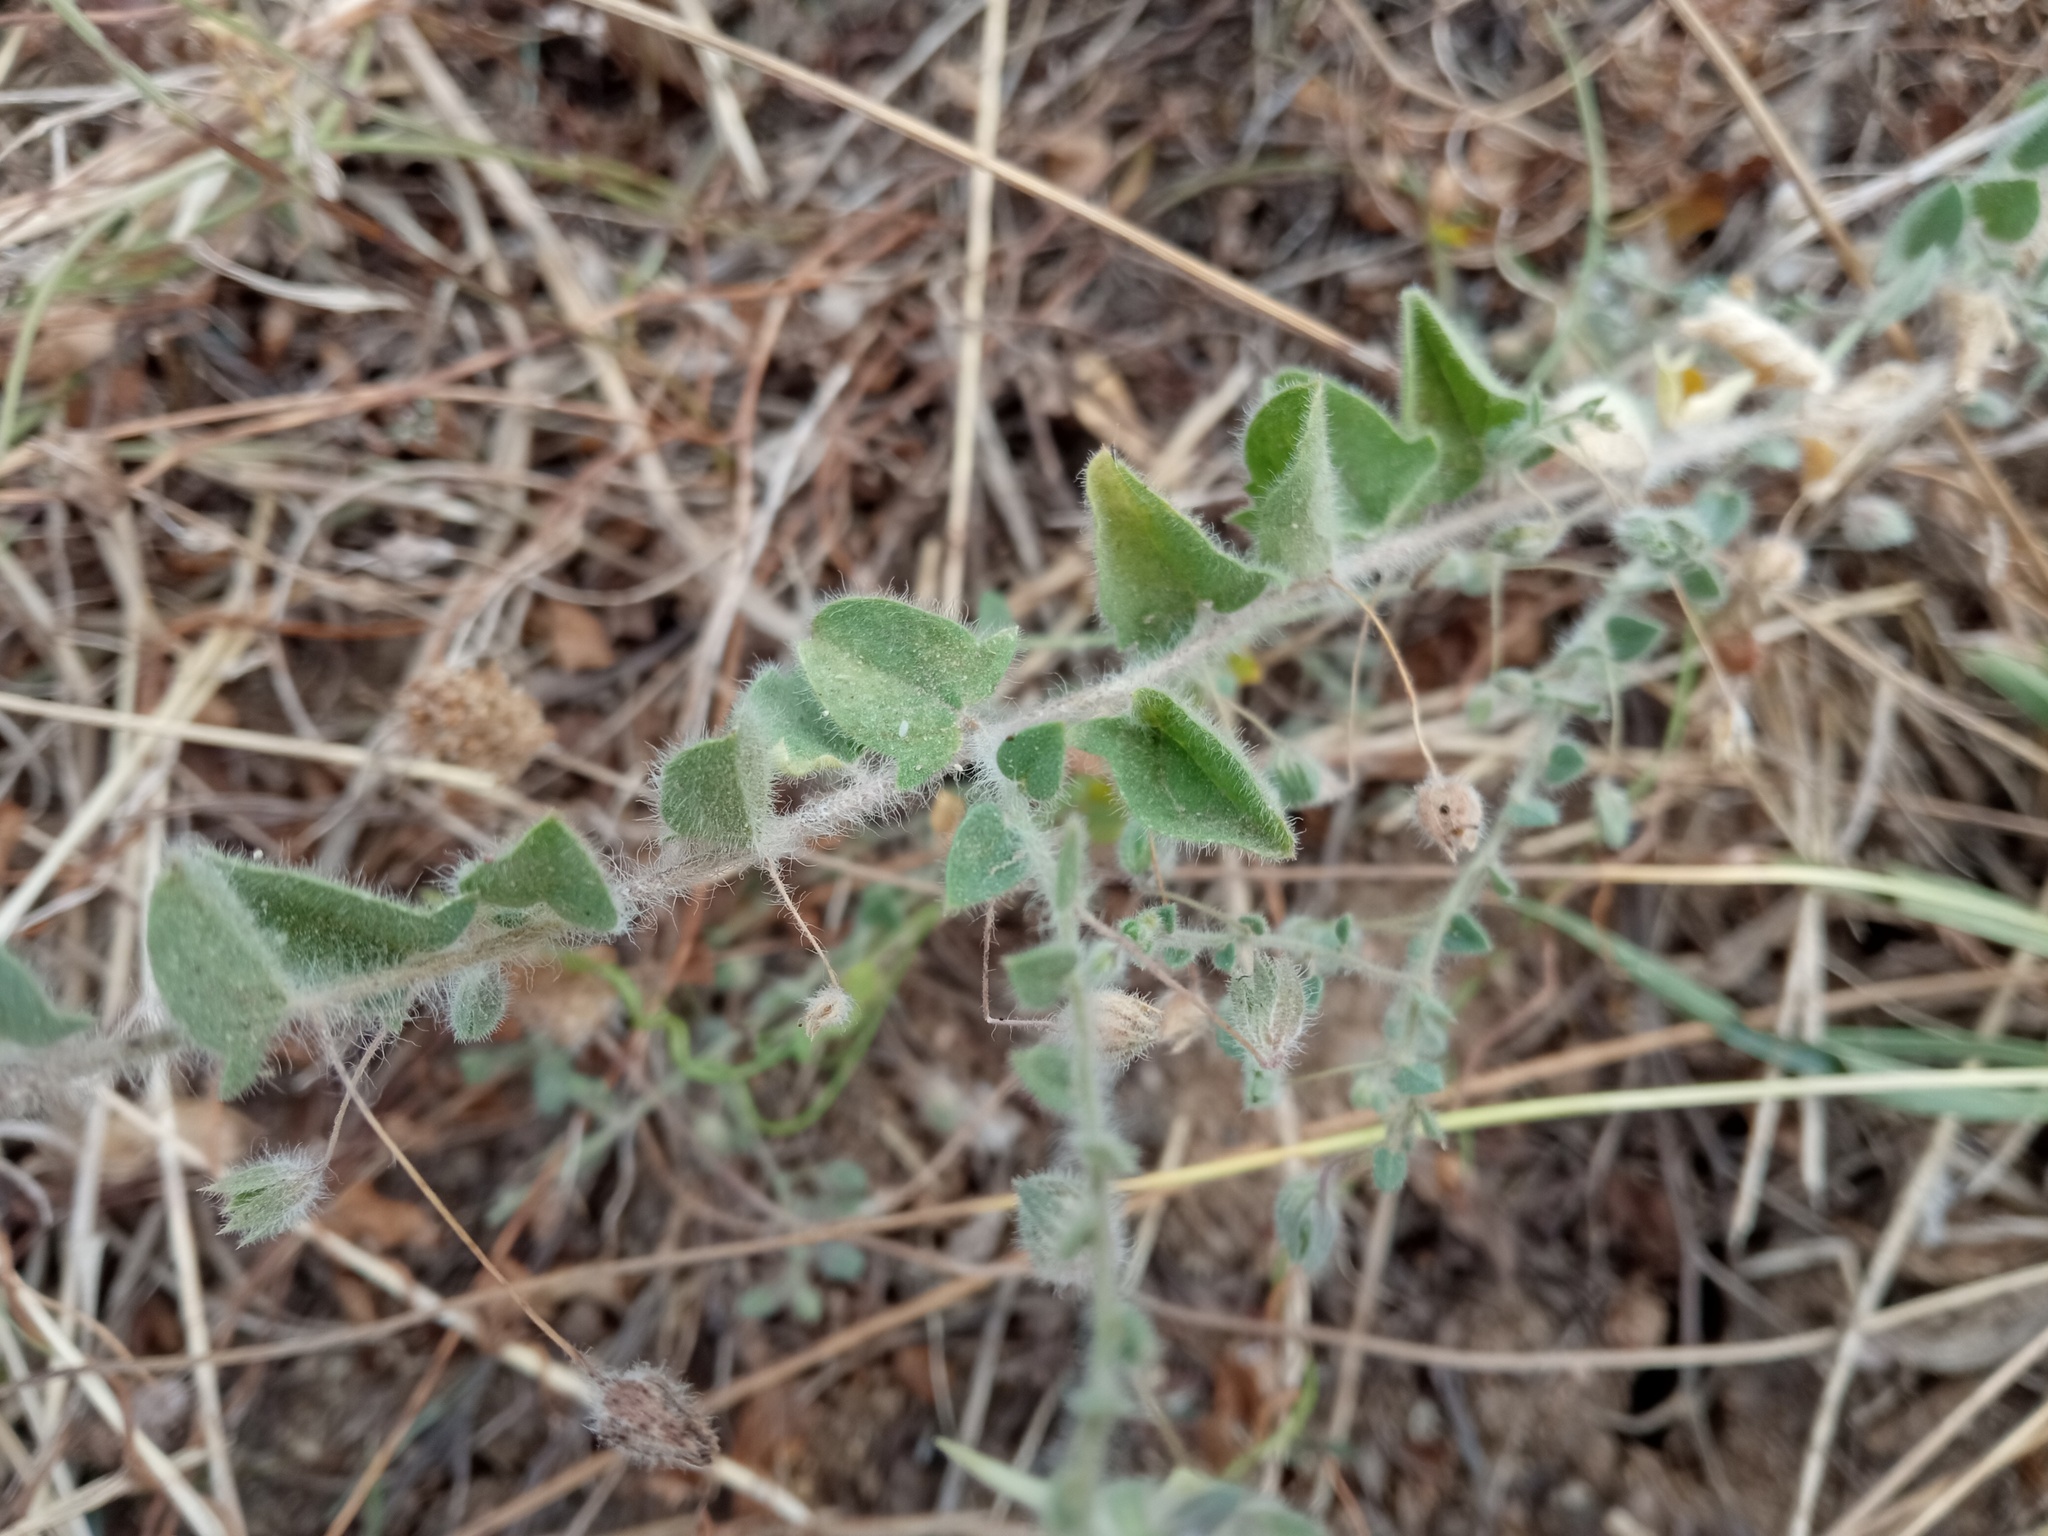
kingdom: Plantae
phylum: Tracheophyta
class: Magnoliopsida
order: Lamiales
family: Plantaginaceae
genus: Kickxia
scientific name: Kickxia elatine
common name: Sharp-leaved fluellen
